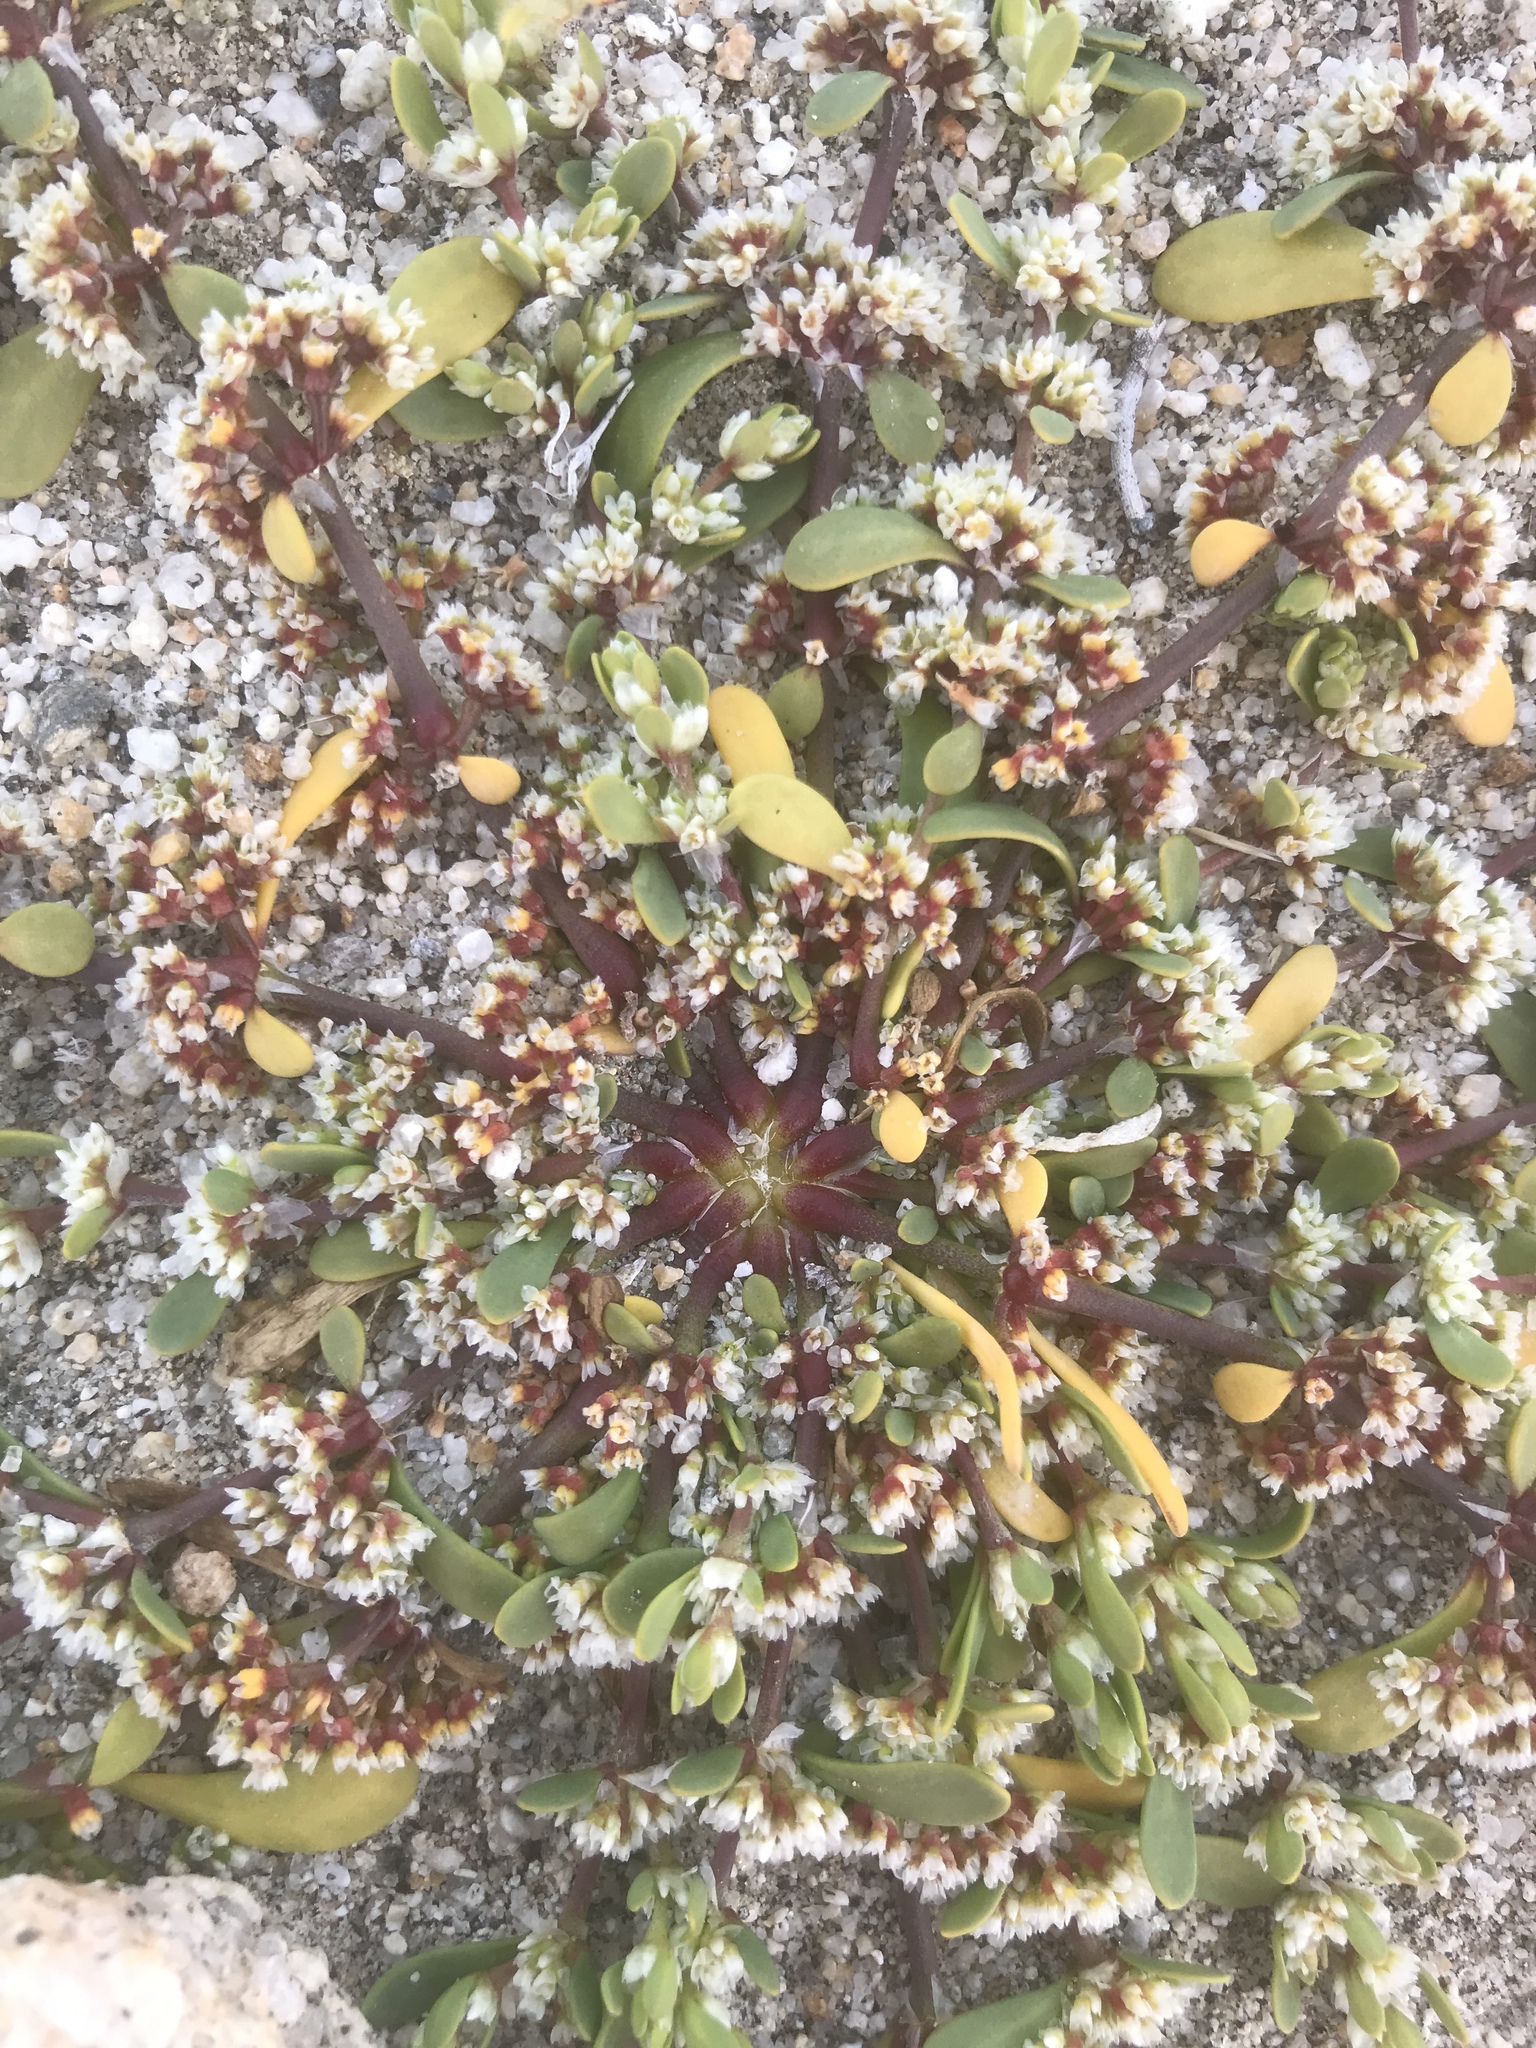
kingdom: Plantae
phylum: Tracheophyta
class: Magnoliopsida
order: Caryophyllales
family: Caryophyllaceae
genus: Achyronychia
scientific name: Achyronychia cooperi
